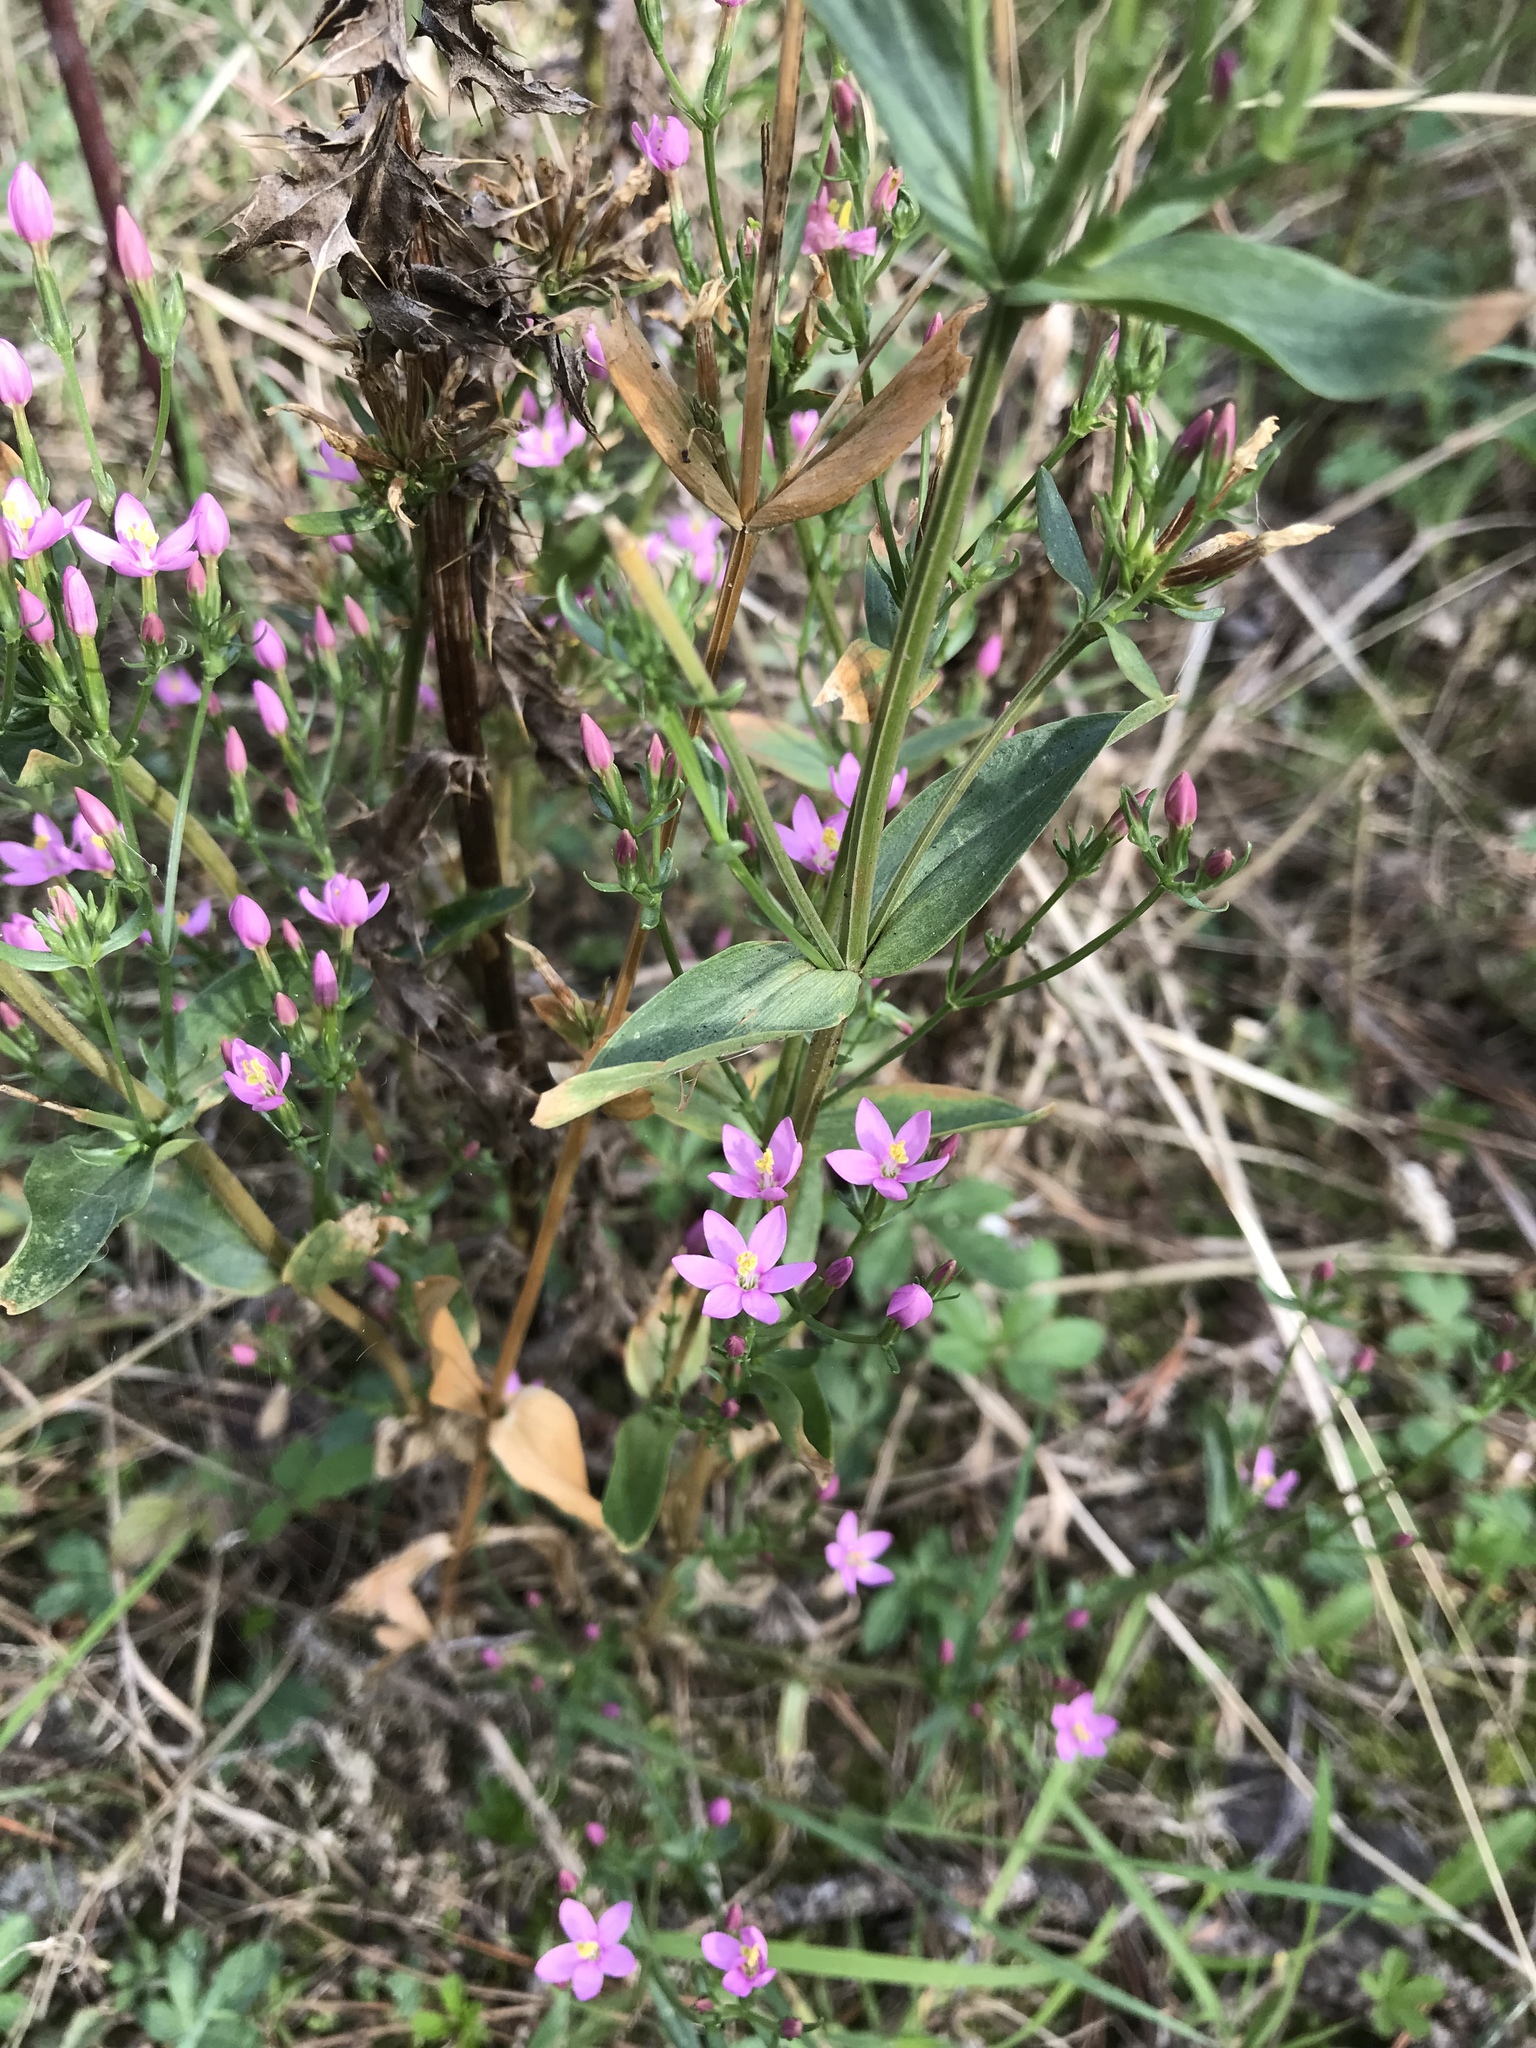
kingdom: Plantae
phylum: Tracheophyta
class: Magnoliopsida
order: Gentianales
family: Gentianaceae
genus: Centaurium
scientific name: Centaurium erythraea
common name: Common centaury
